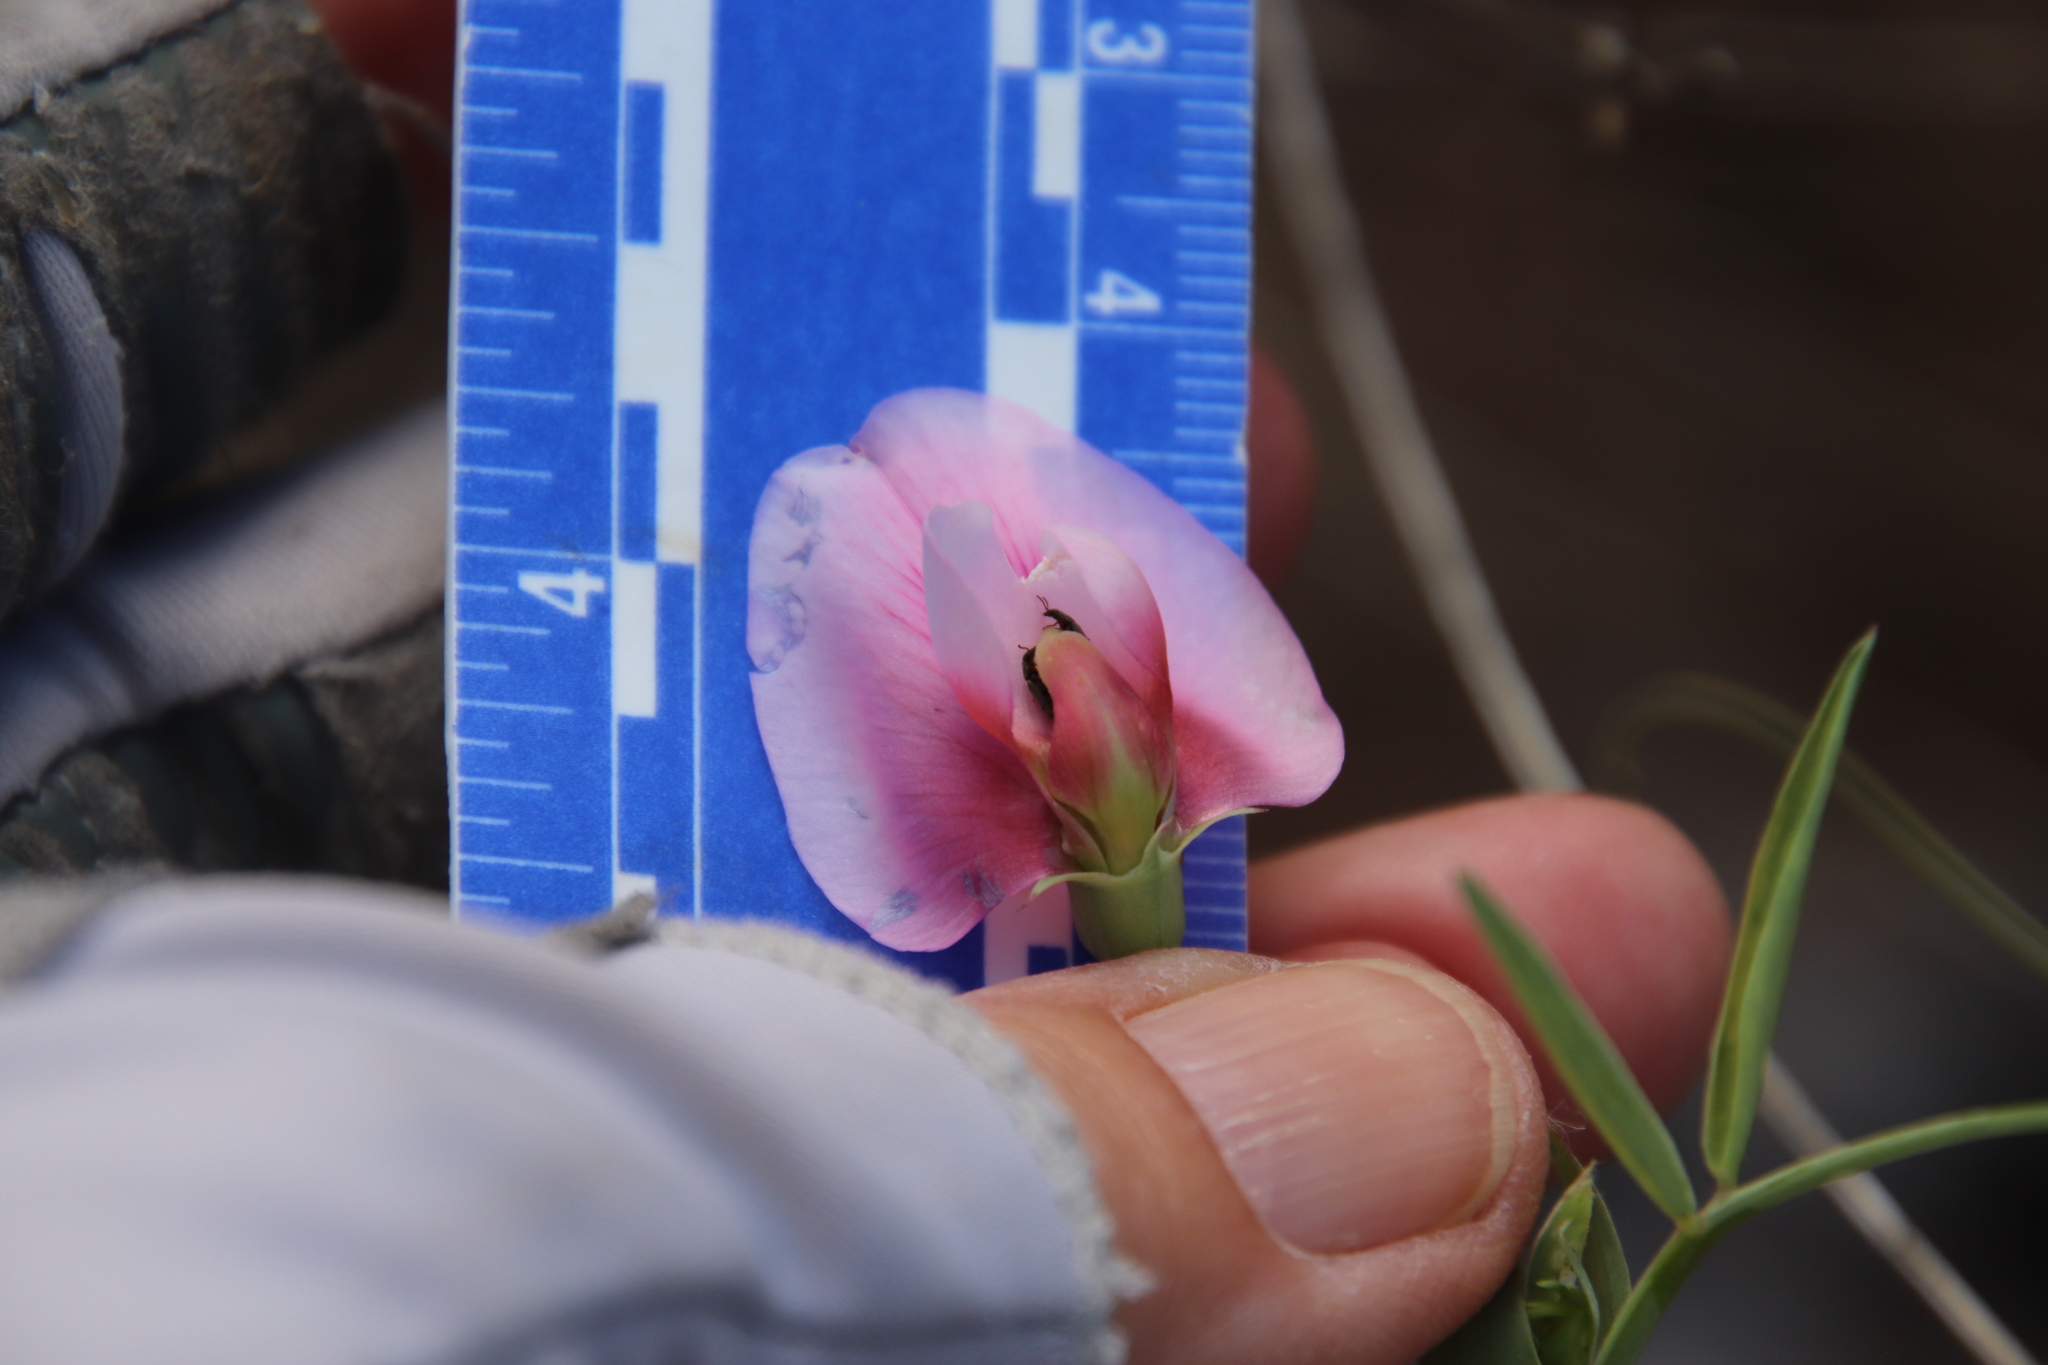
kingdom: Plantae
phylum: Tracheophyta
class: Magnoliopsida
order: Fabales
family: Fabaceae
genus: Lathyrus
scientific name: Lathyrus tingitanus
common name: Tangier pea
